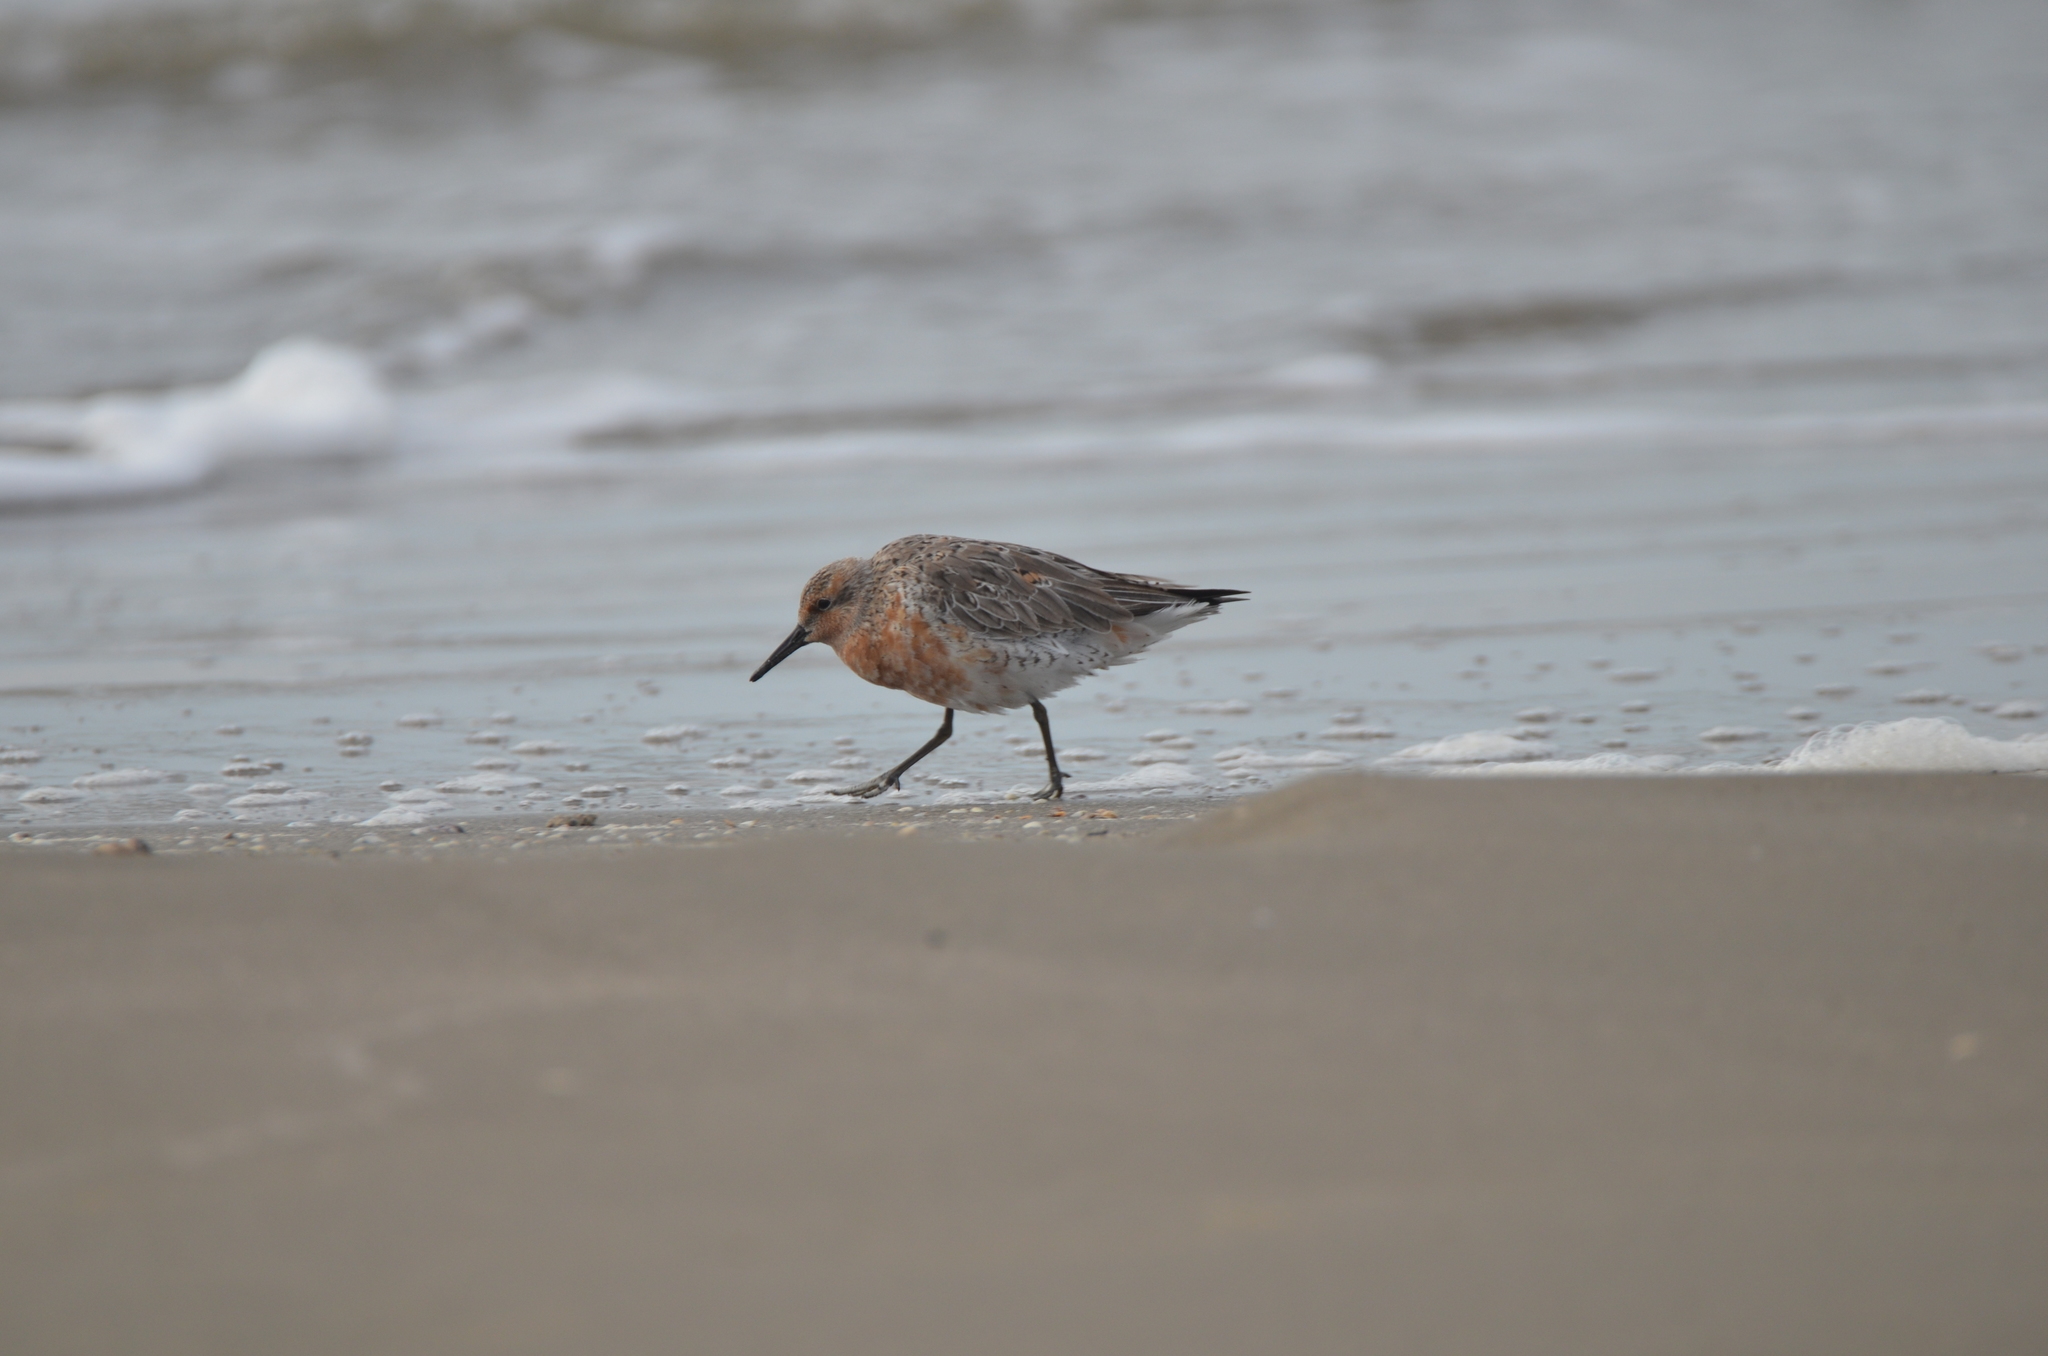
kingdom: Animalia
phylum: Chordata
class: Aves
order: Charadriiformes
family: Scolopacidae
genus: Calidris
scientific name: Calidris canutus
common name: Red knot
